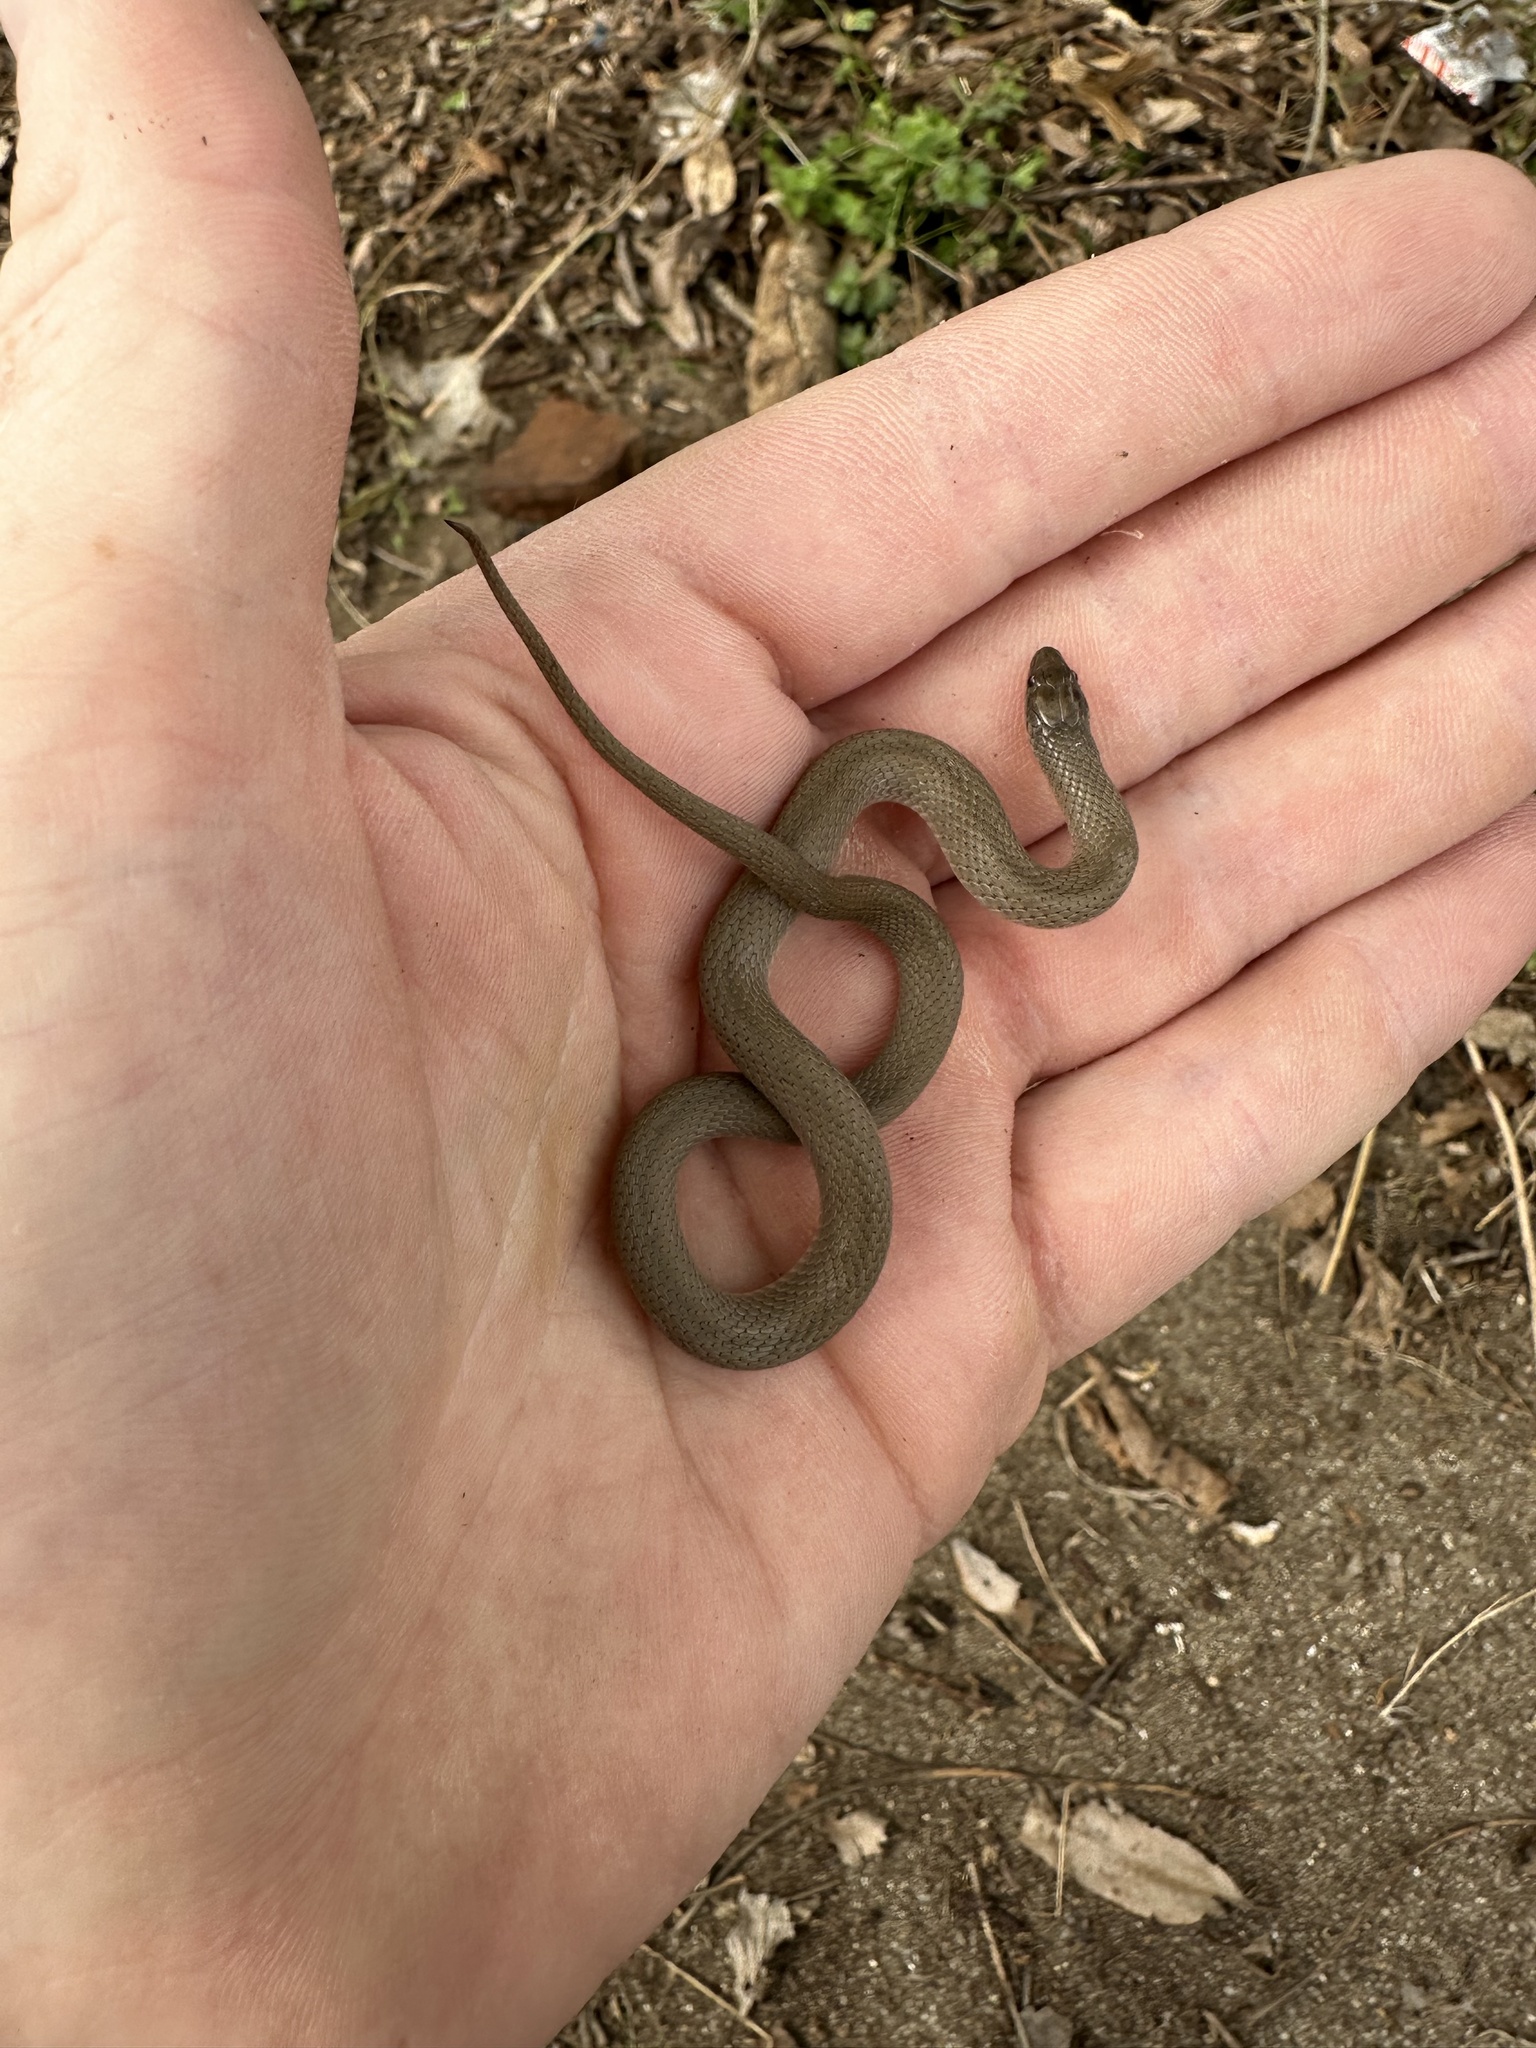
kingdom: Animalia
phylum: Chordata
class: Squamata
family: Colubridae
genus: Haldea
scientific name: Haldea striatula
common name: Rough earth snake
